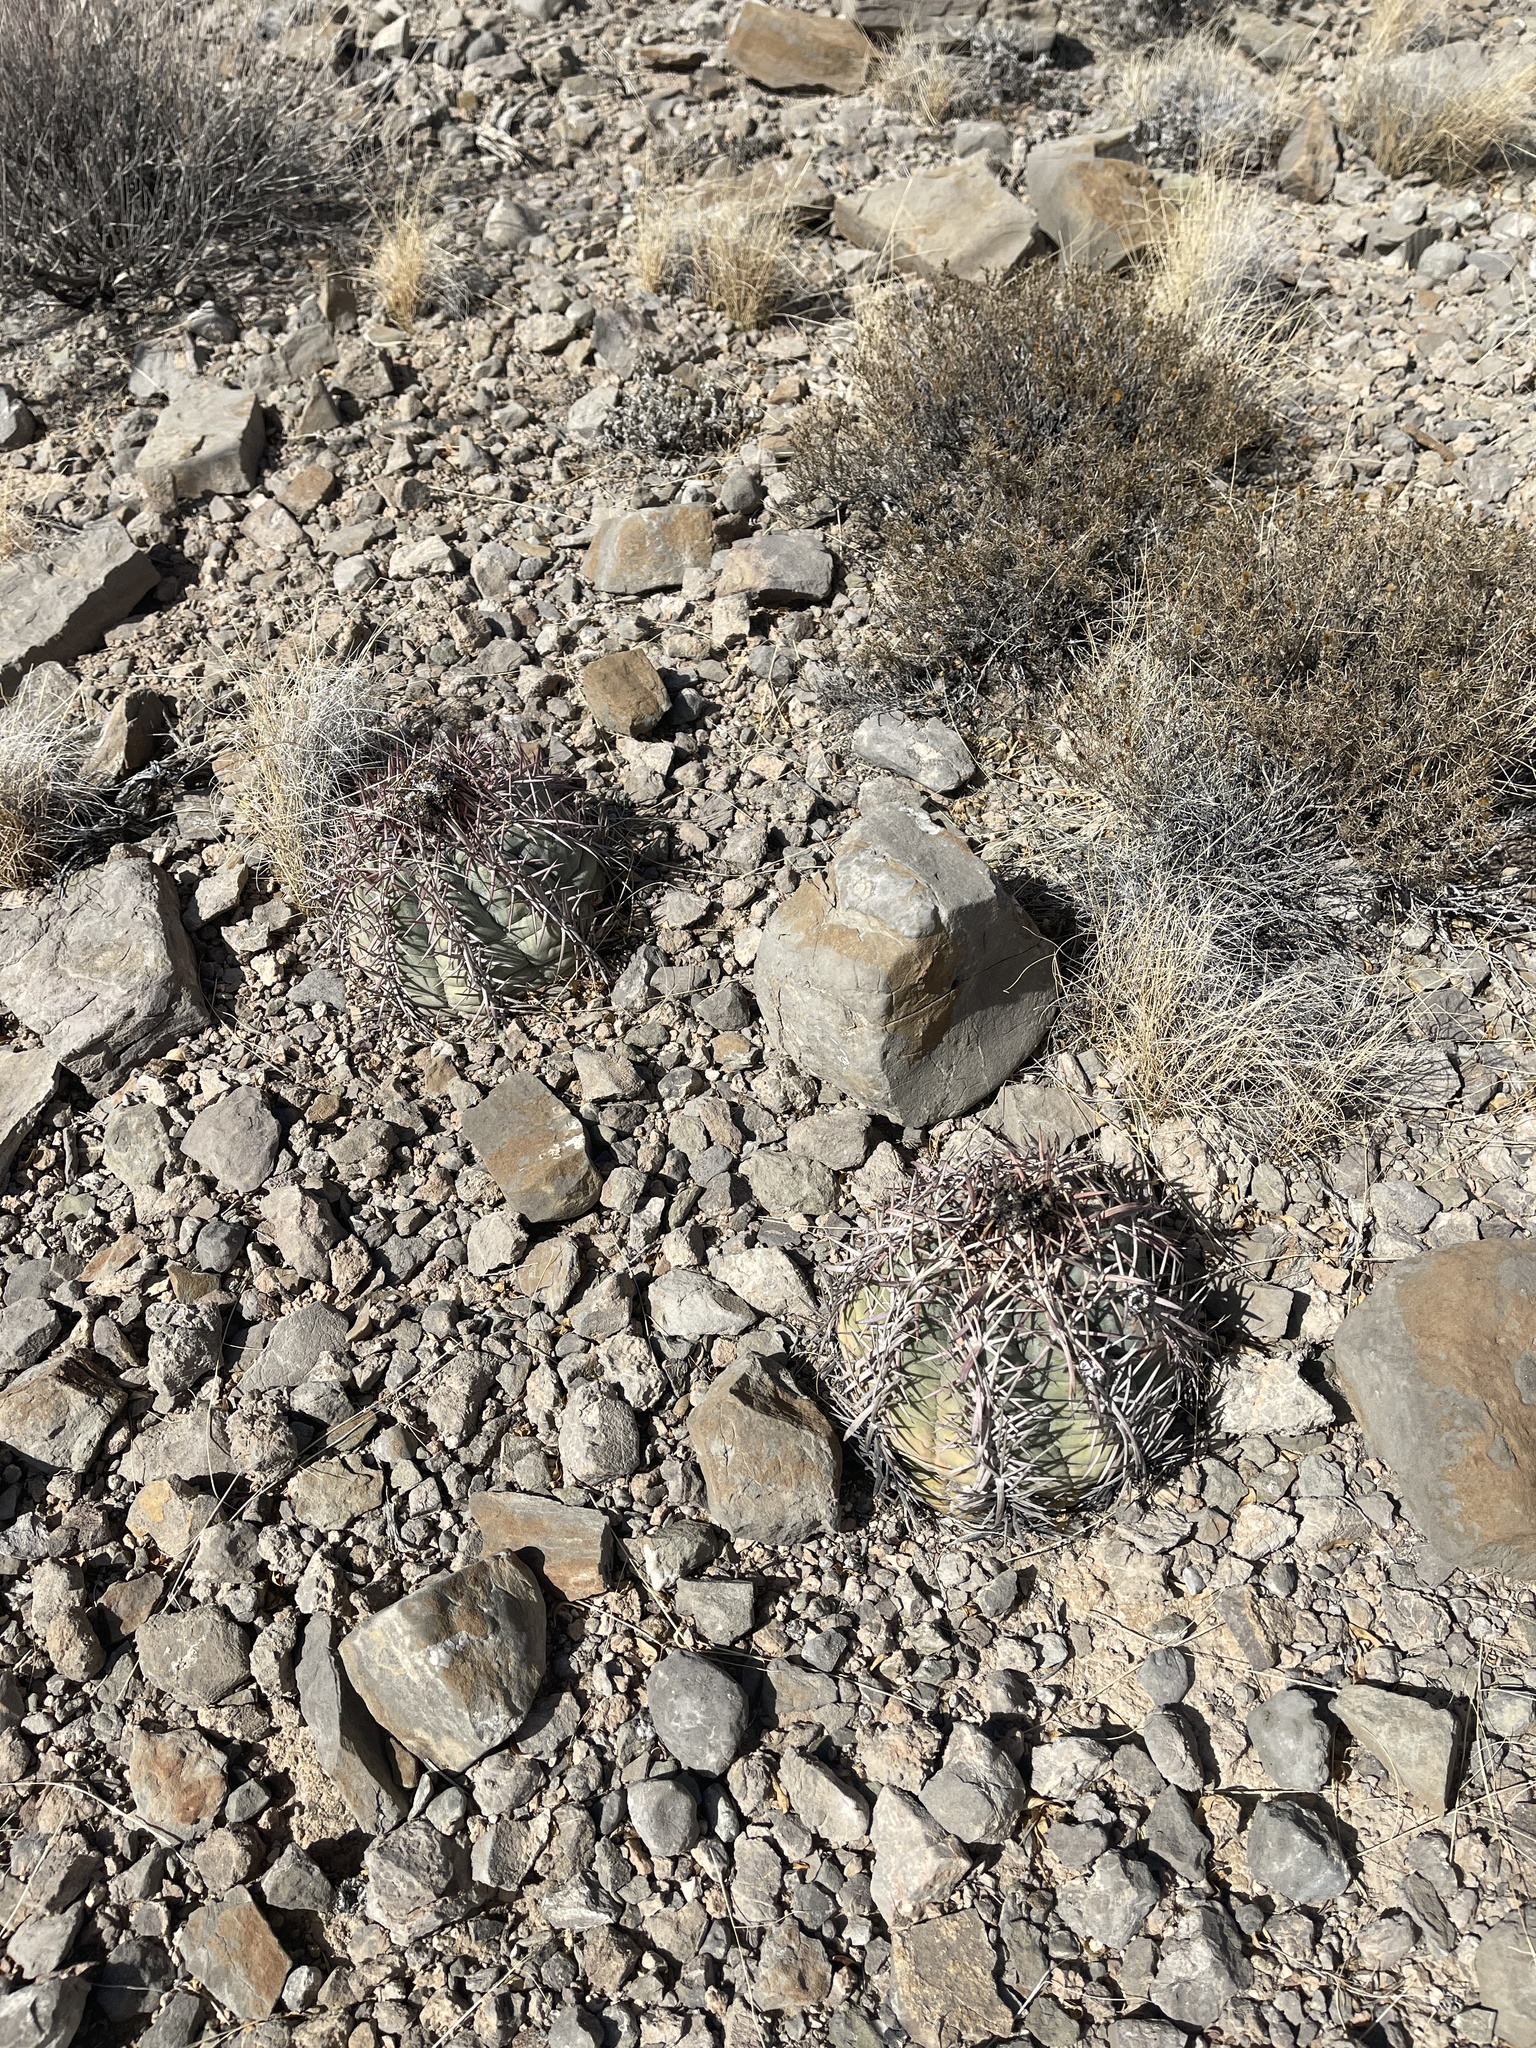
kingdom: Plantae
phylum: Tracheophyta
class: Magnoliopsida
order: Caryophyllales
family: Cactaceae
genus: Echinocactus
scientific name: Echinocactus horizonthalonius
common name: Devilshead
